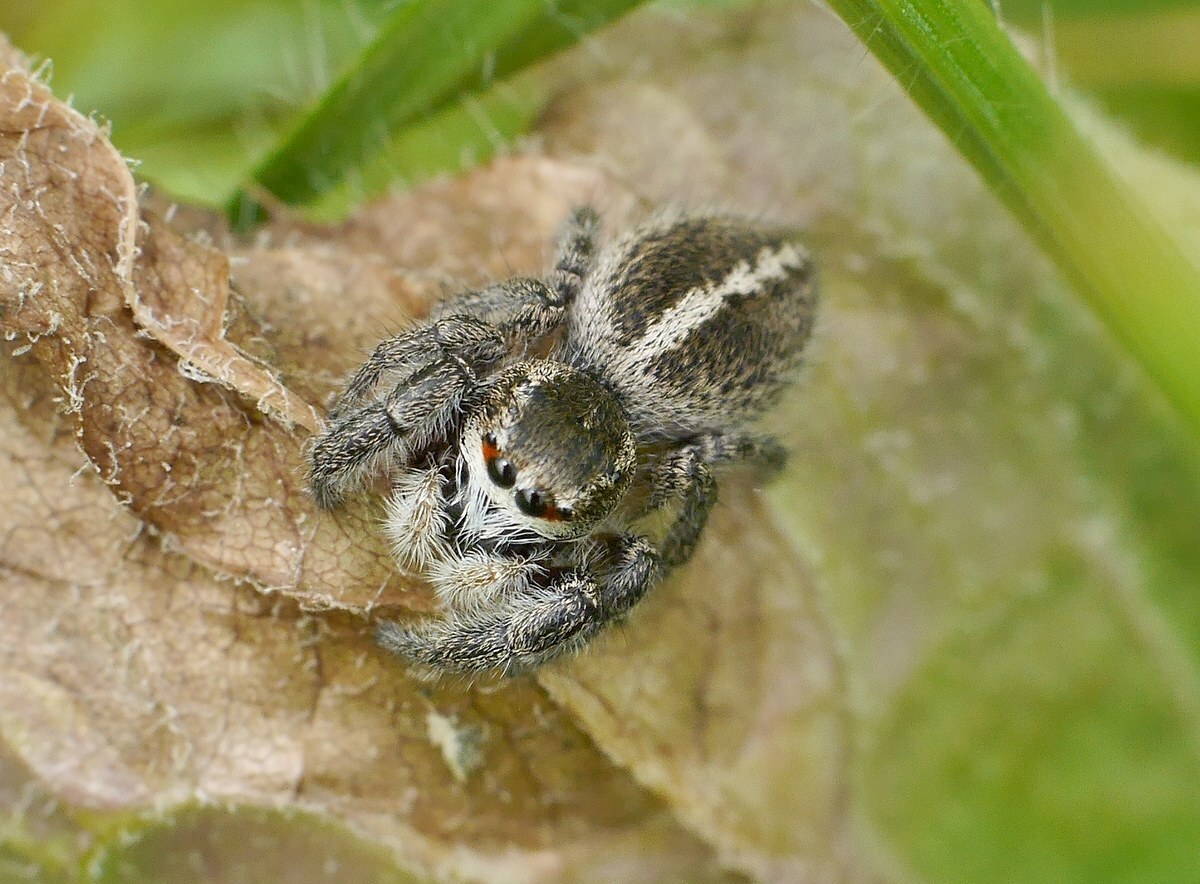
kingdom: Animalia
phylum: Arthropoda
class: Arachnida
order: Araneae
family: Salticidae
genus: Pellenes
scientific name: Pellenes seriatus
